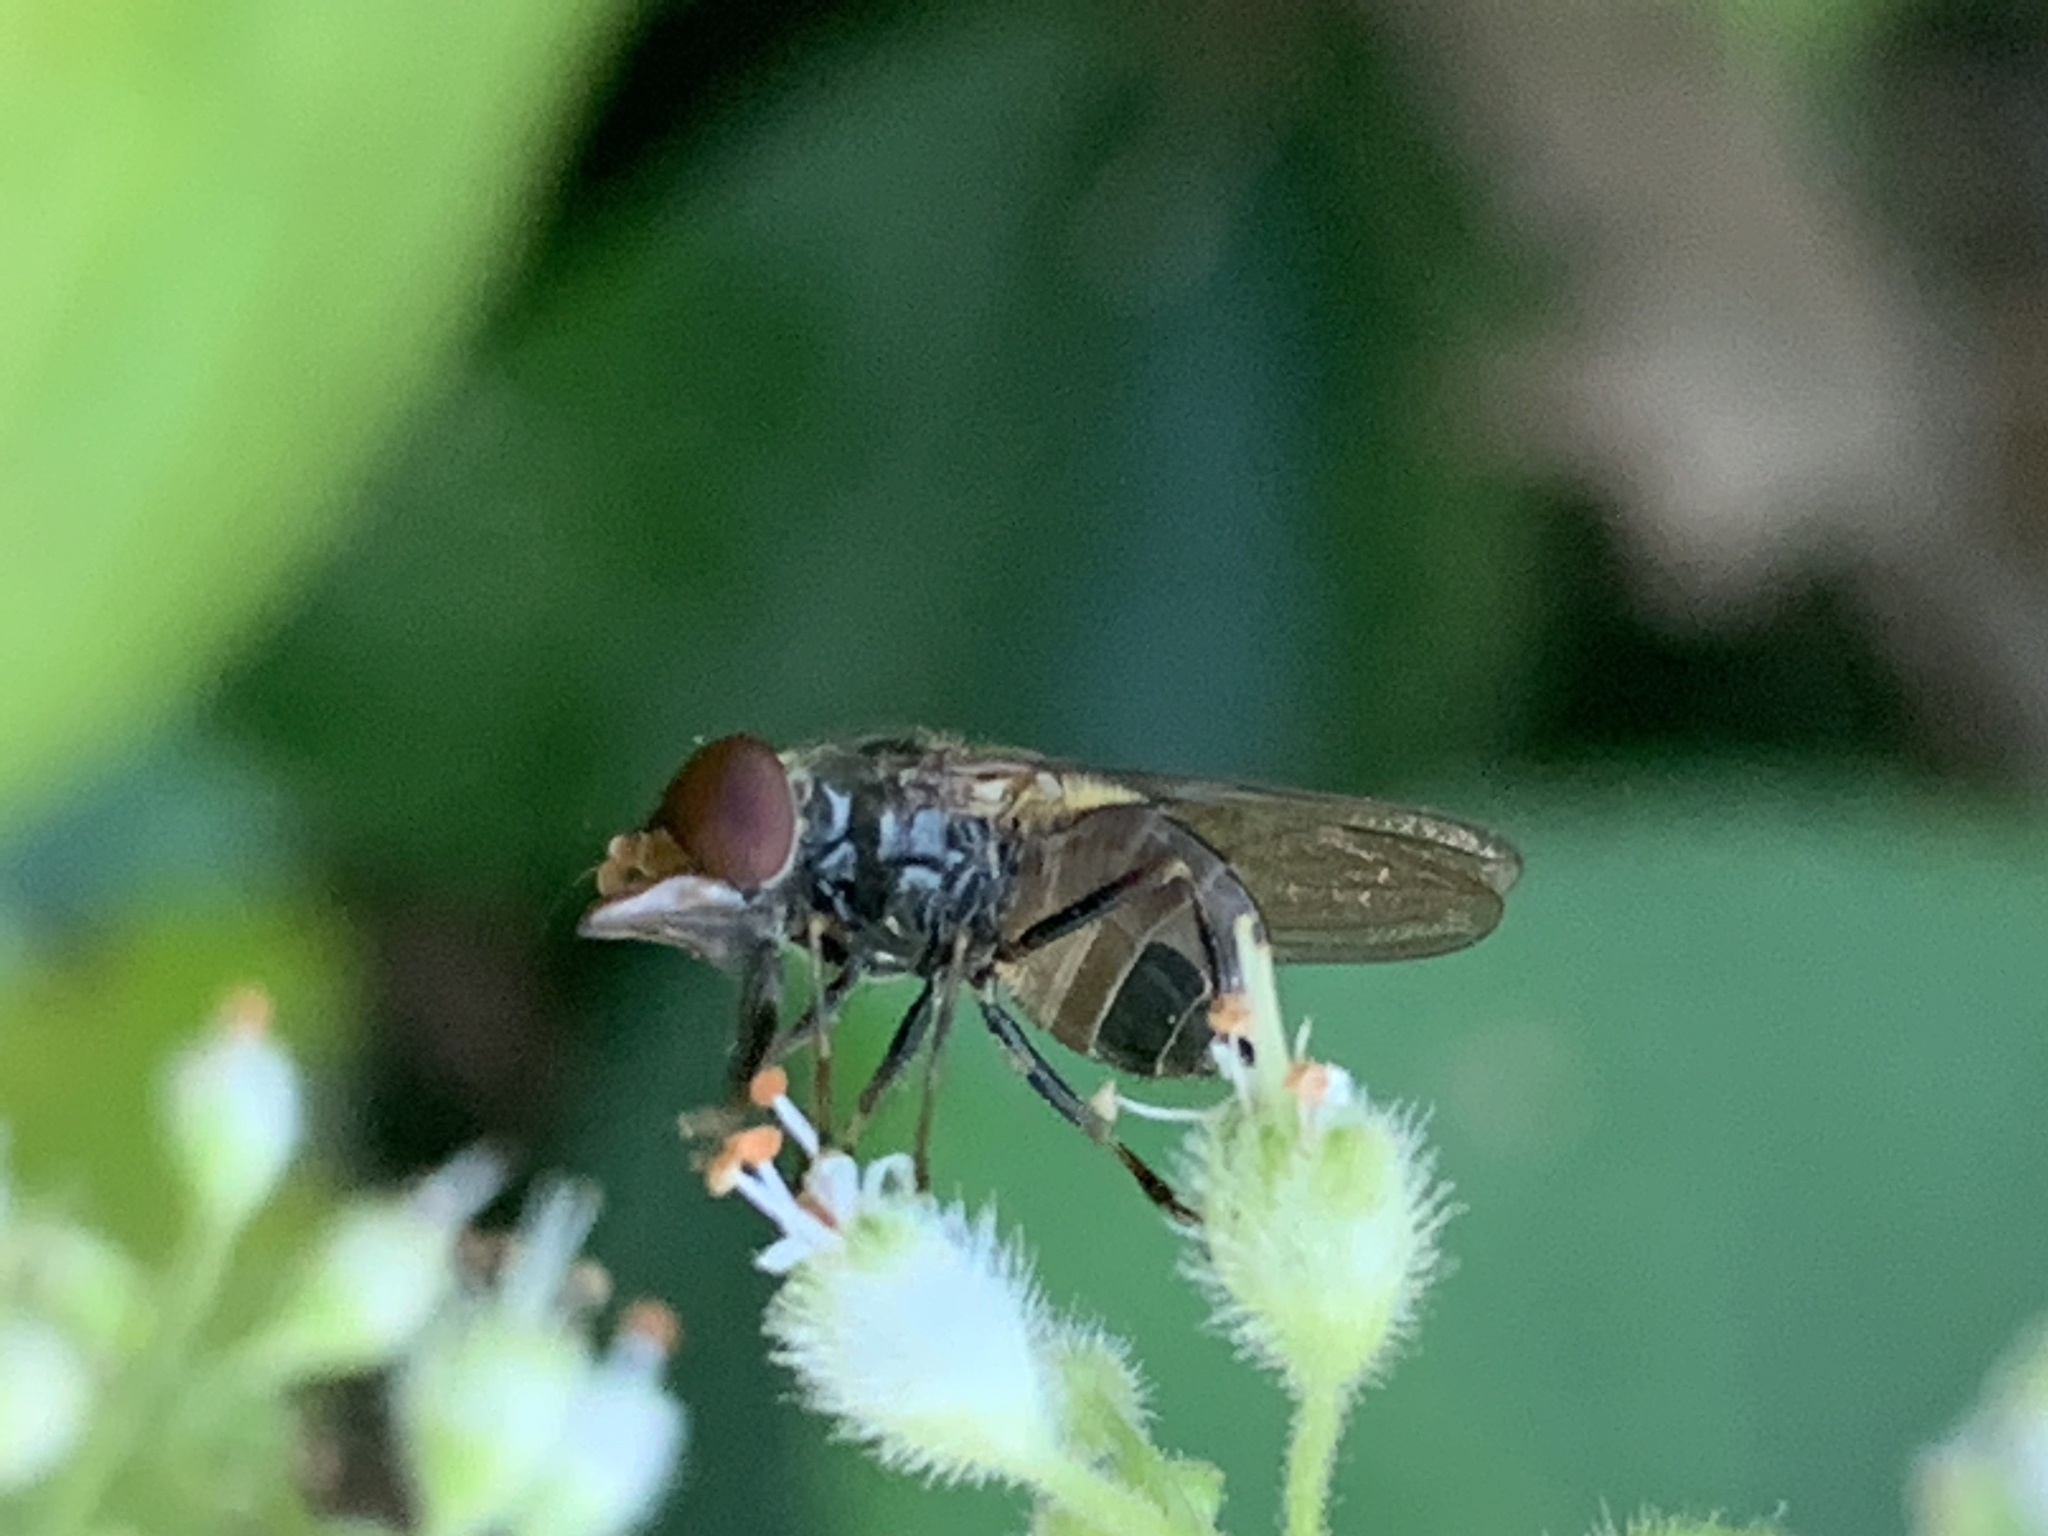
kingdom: Animalia
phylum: Arthropoda
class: Insecta
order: Diptera
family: Syrphidae
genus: Rhingia
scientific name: Rhingia nasica
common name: American snout fly
